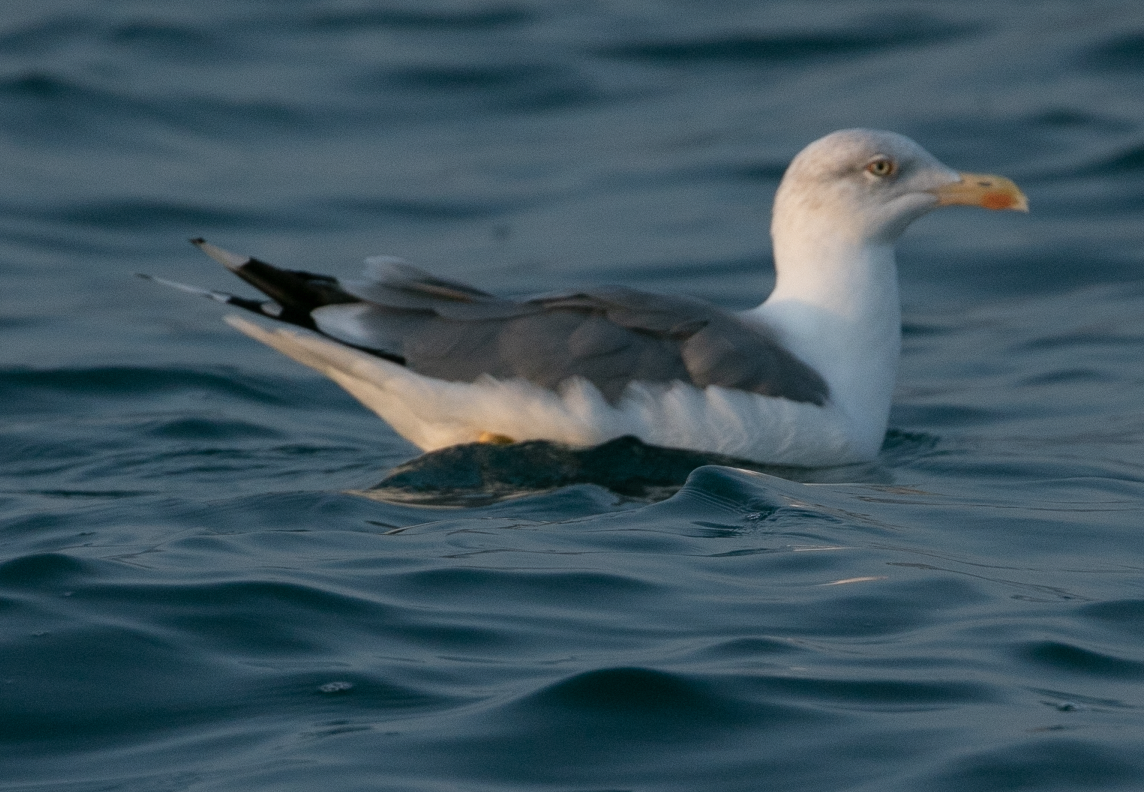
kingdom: Animalia
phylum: Chordata
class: Aves
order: Charadriiformes
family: Laridae
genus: Larus
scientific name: Larus michahellis
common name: Yellow-legged gull
